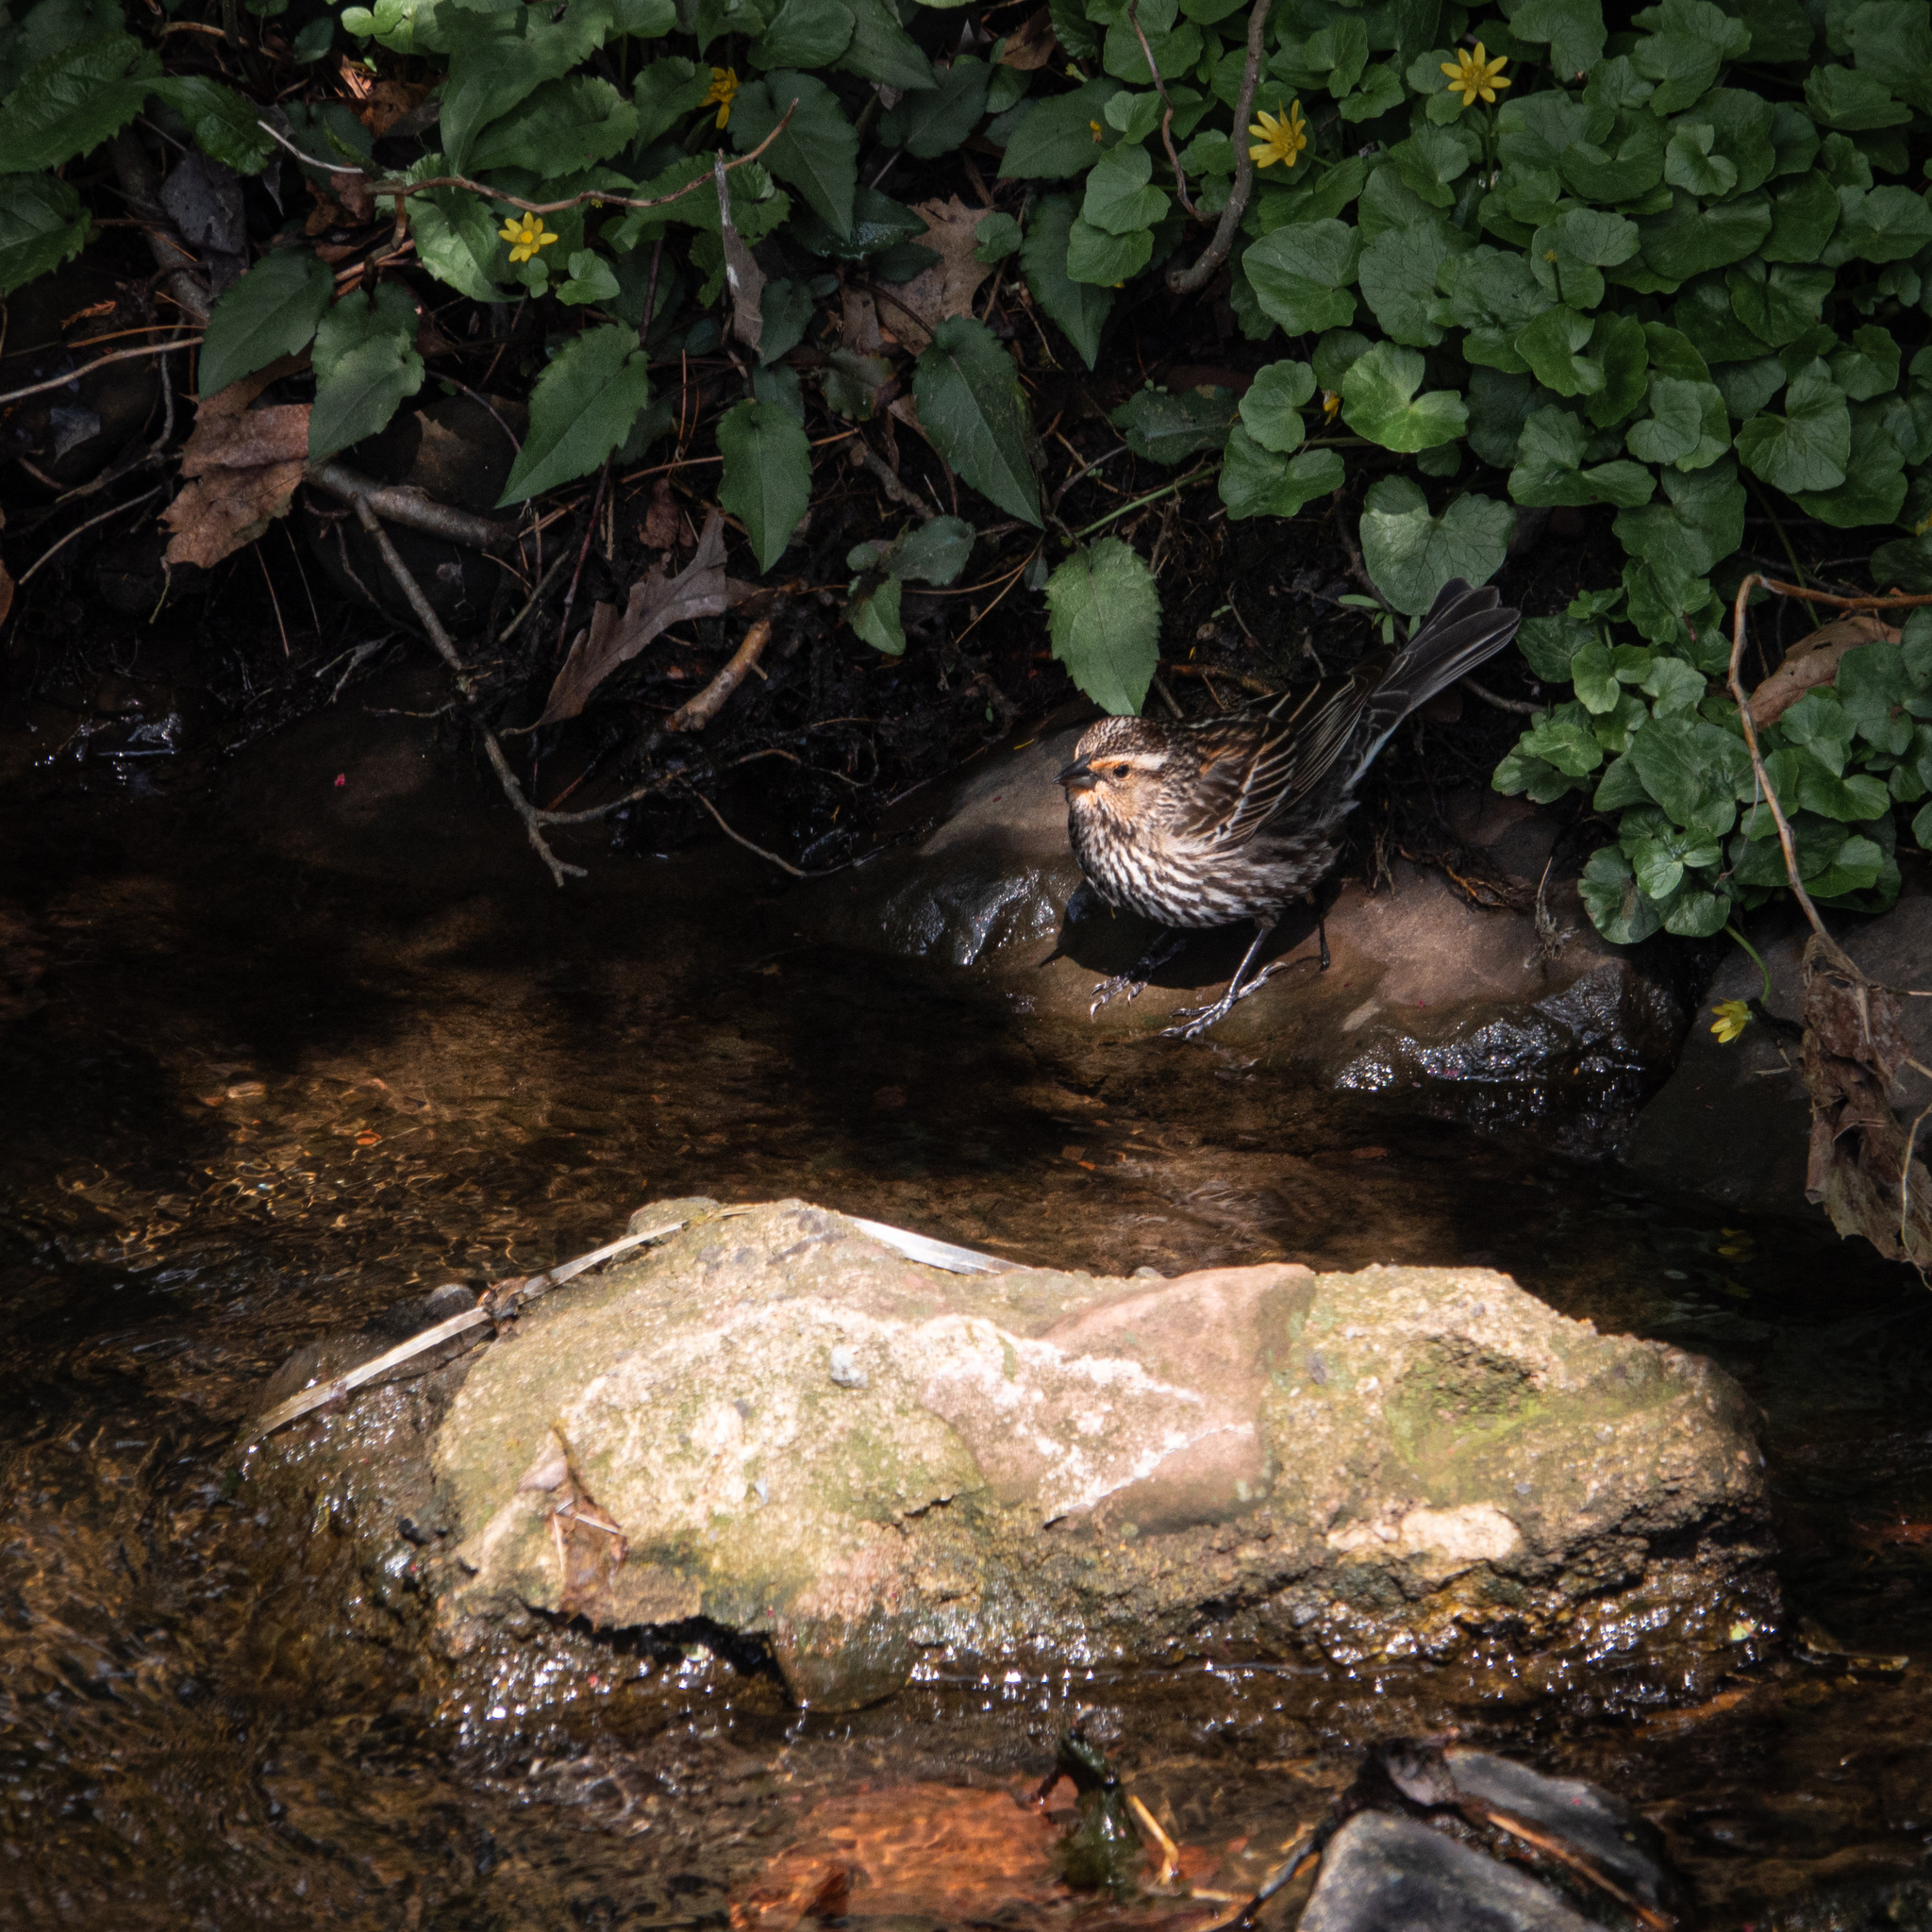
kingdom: Animalia
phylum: Chordata
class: Aves
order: Passeriformes
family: Icteridae
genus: Agelaius
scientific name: Agelaius phoeniceus
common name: Red-winged blackbird
